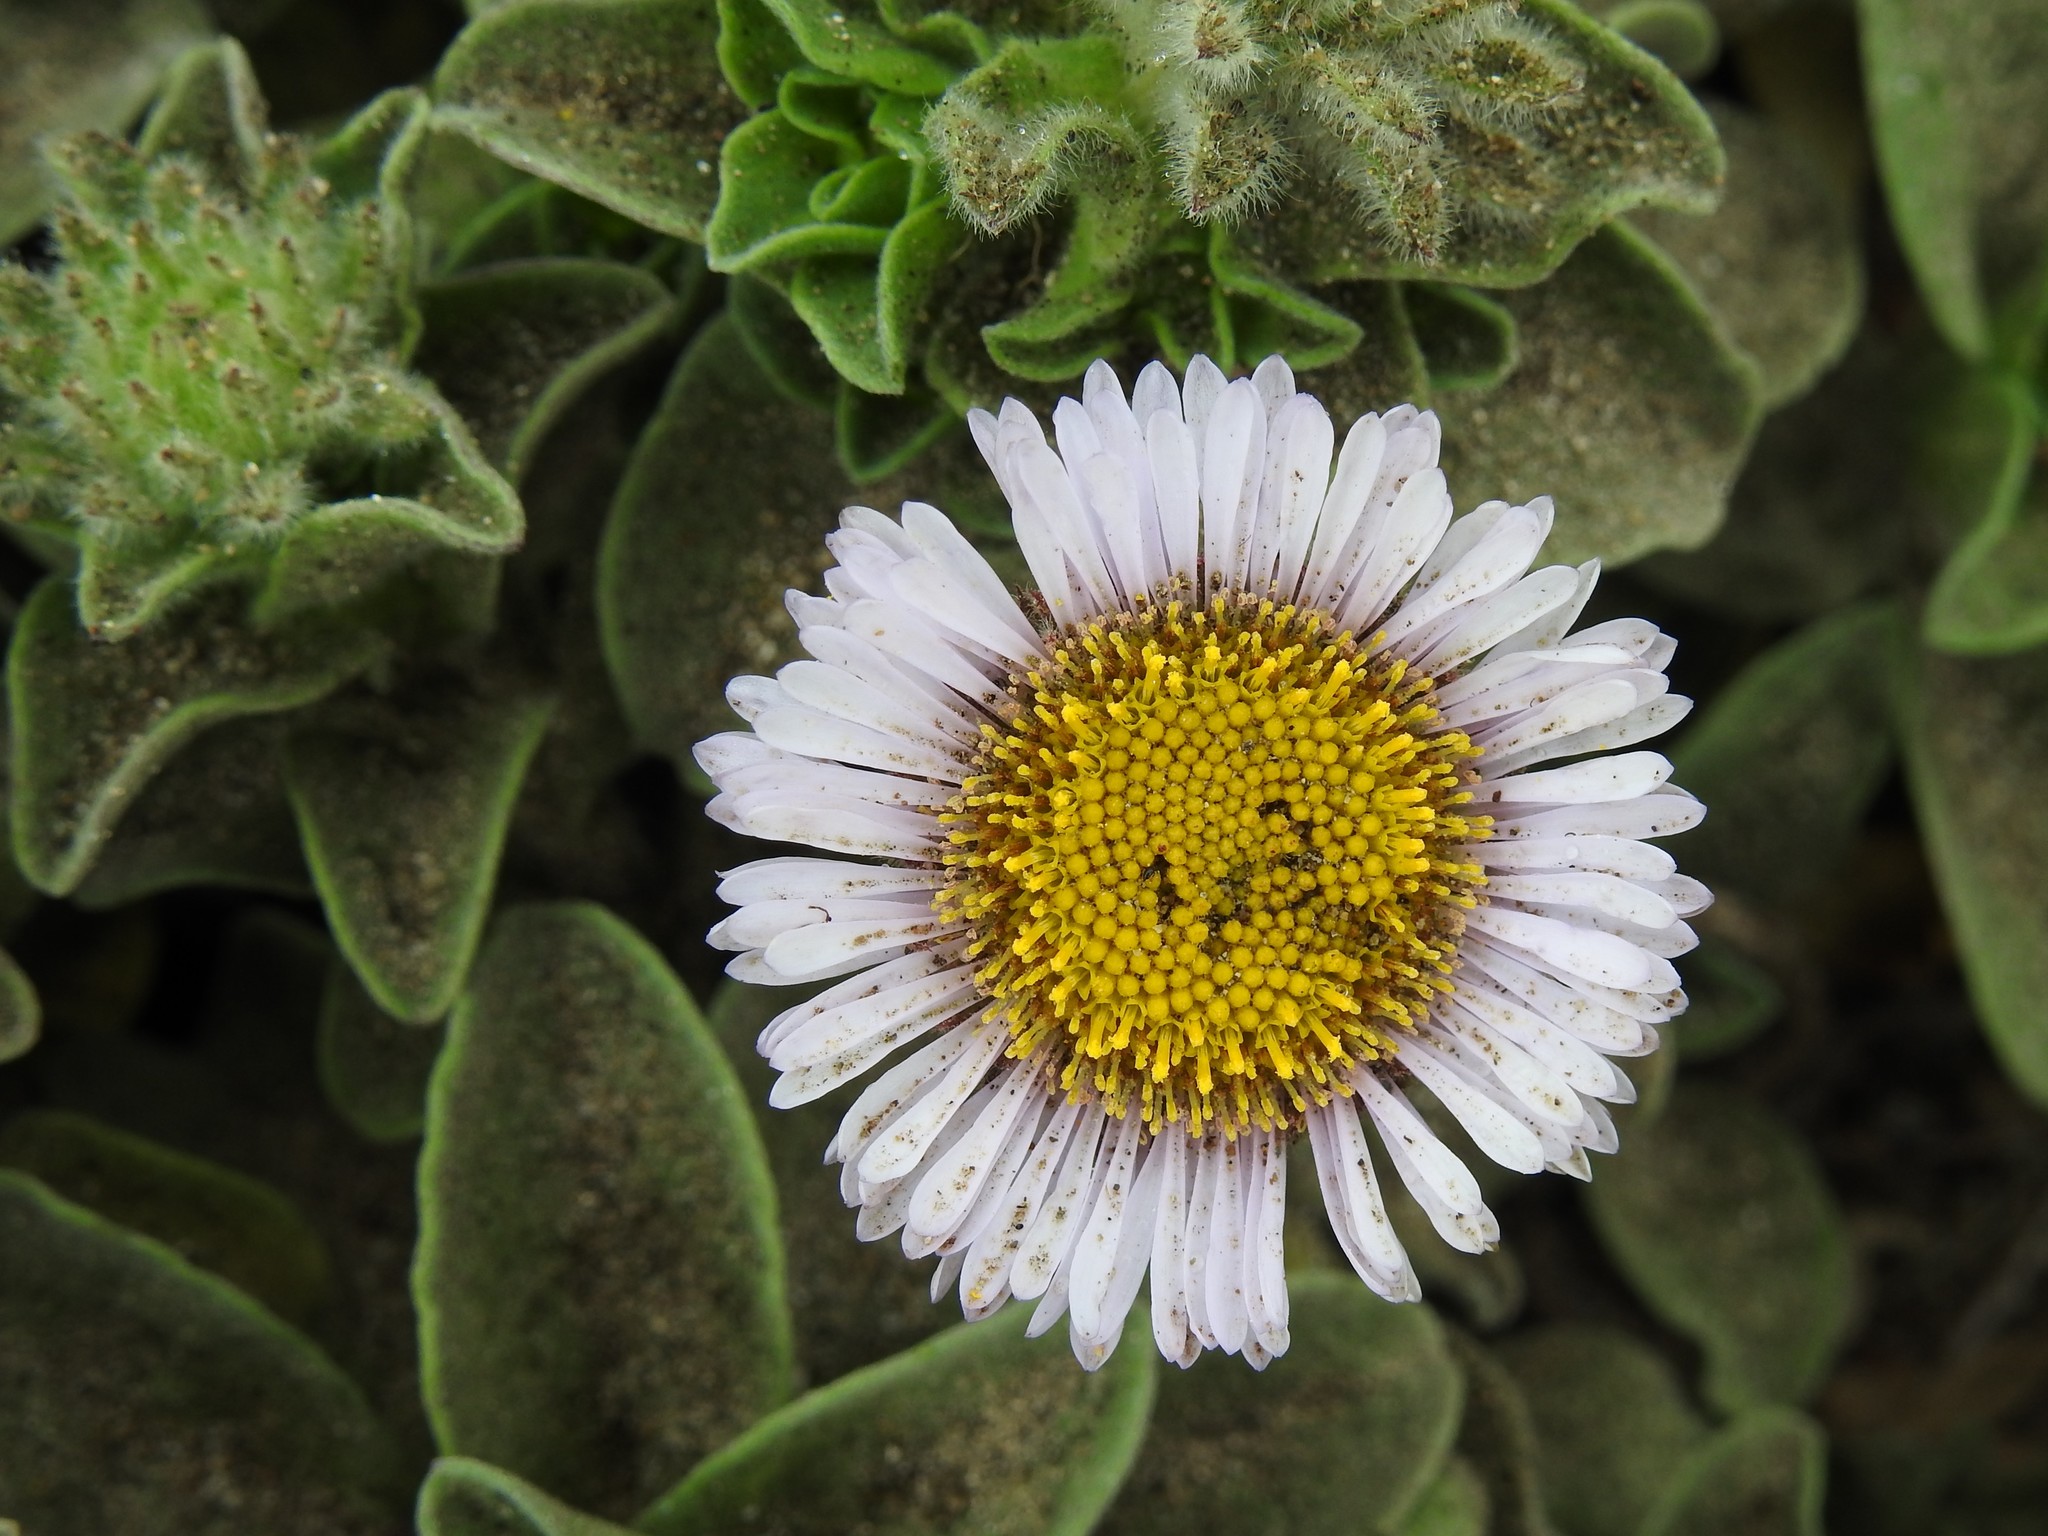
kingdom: Plantae
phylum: Tracheophyta
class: Magnoliopsida
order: Asterales
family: Asteraceae
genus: Erigeron
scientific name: Erigeron glaucus
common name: Seaside daisy
